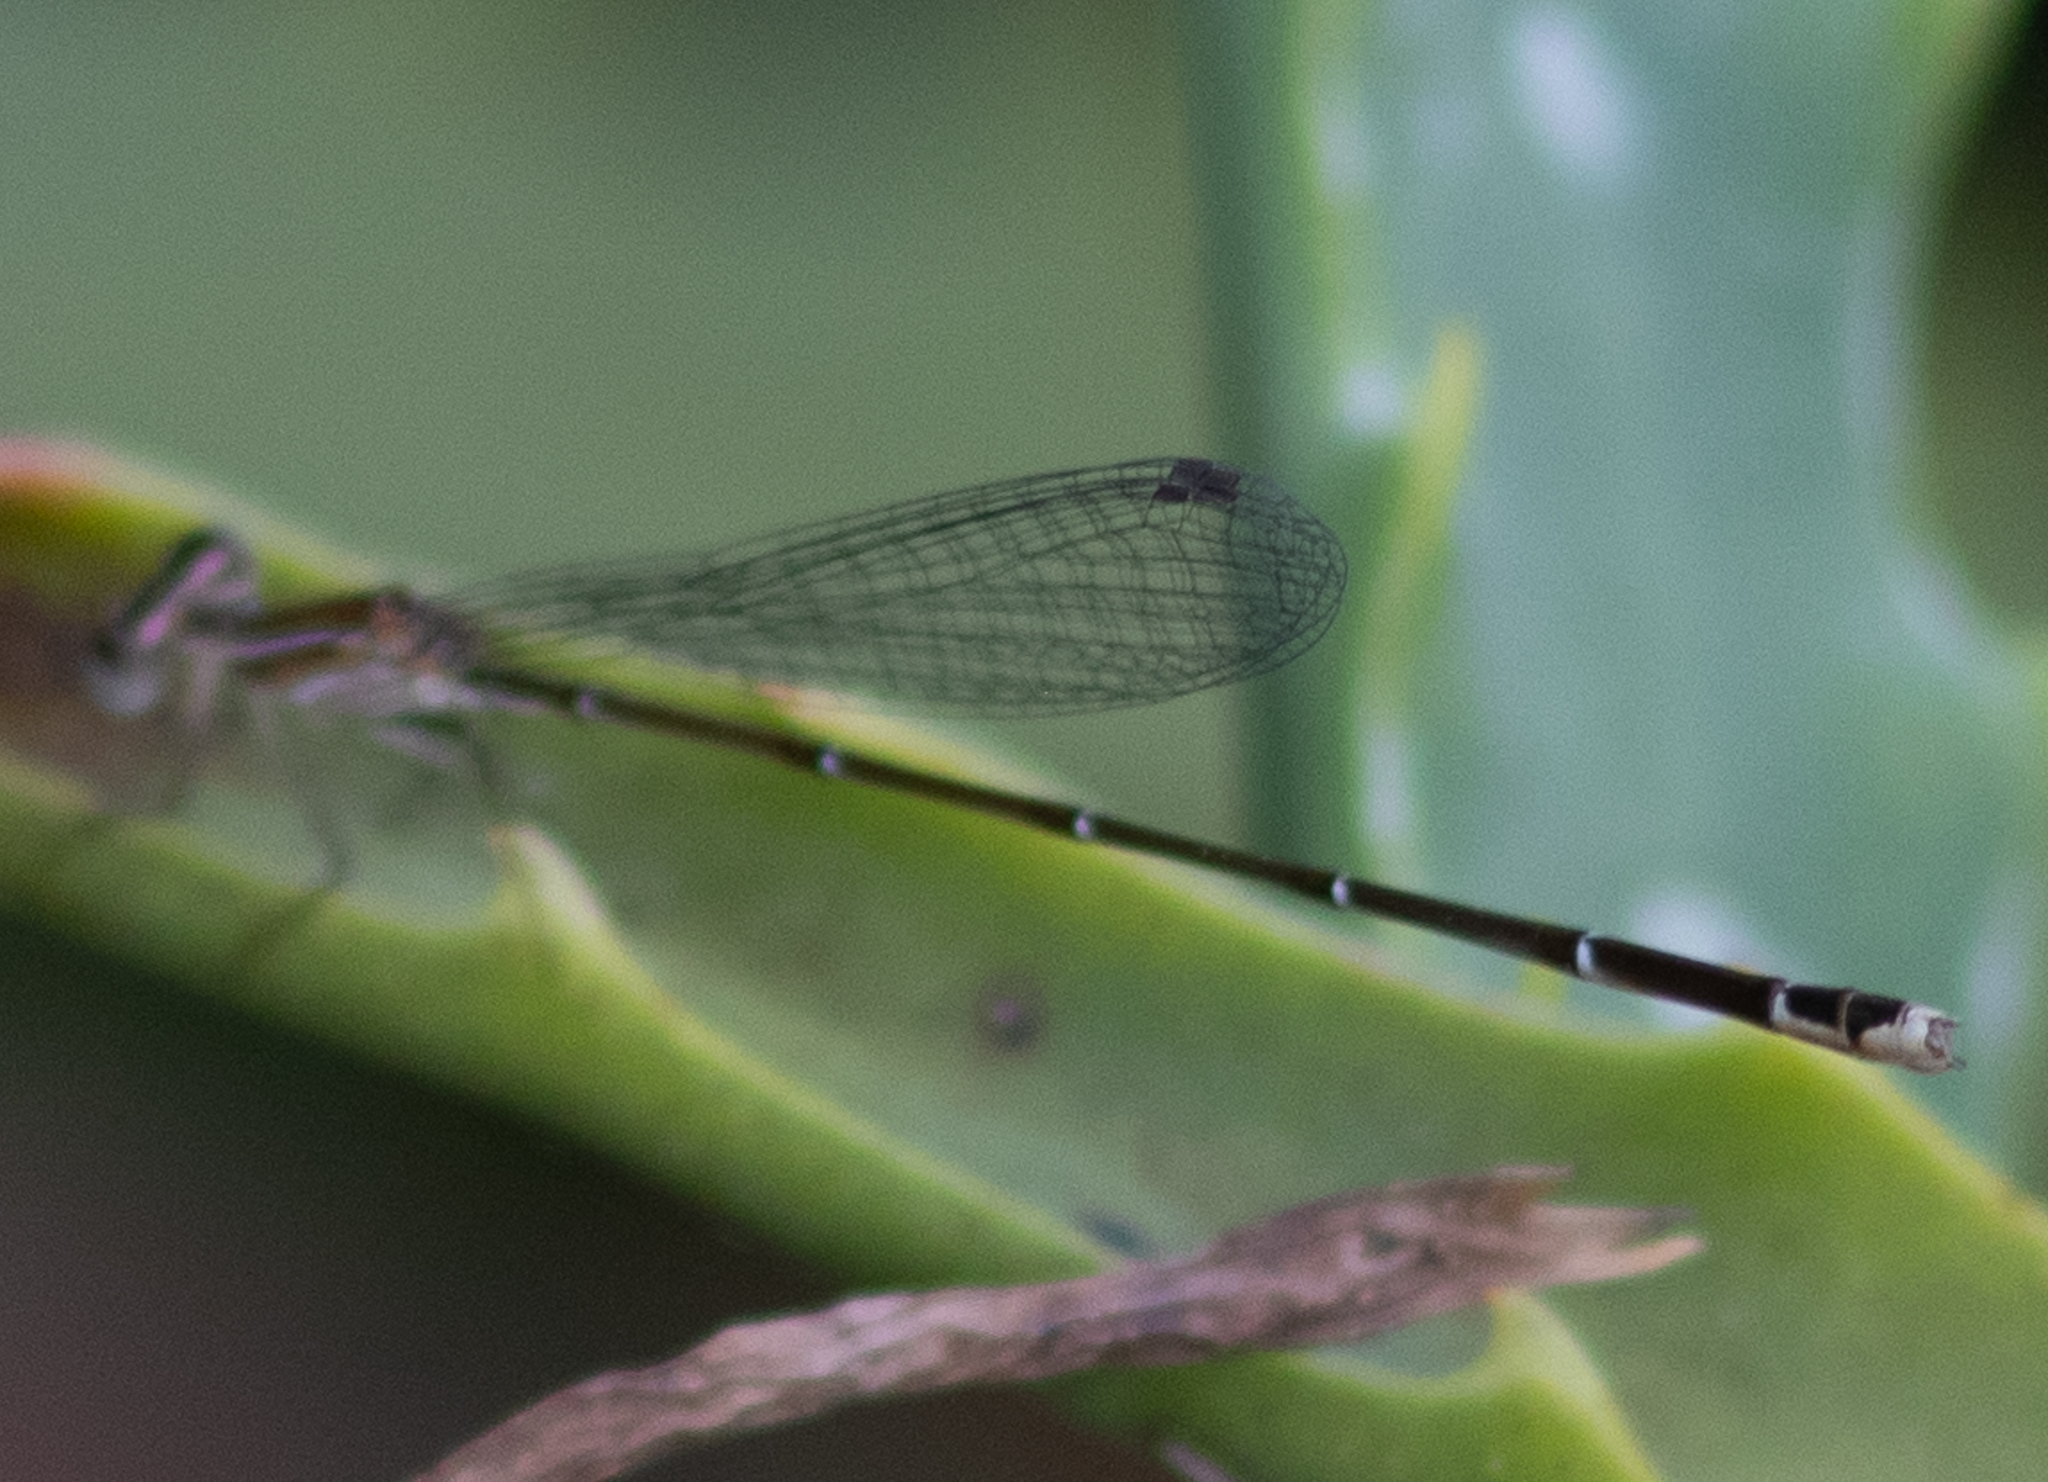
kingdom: Animalia
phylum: Arthropoda
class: Insecta
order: Odonata
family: Coenagrionidae
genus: Nehalennia
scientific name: Nehalennia pallidula
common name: Everglades sprite
